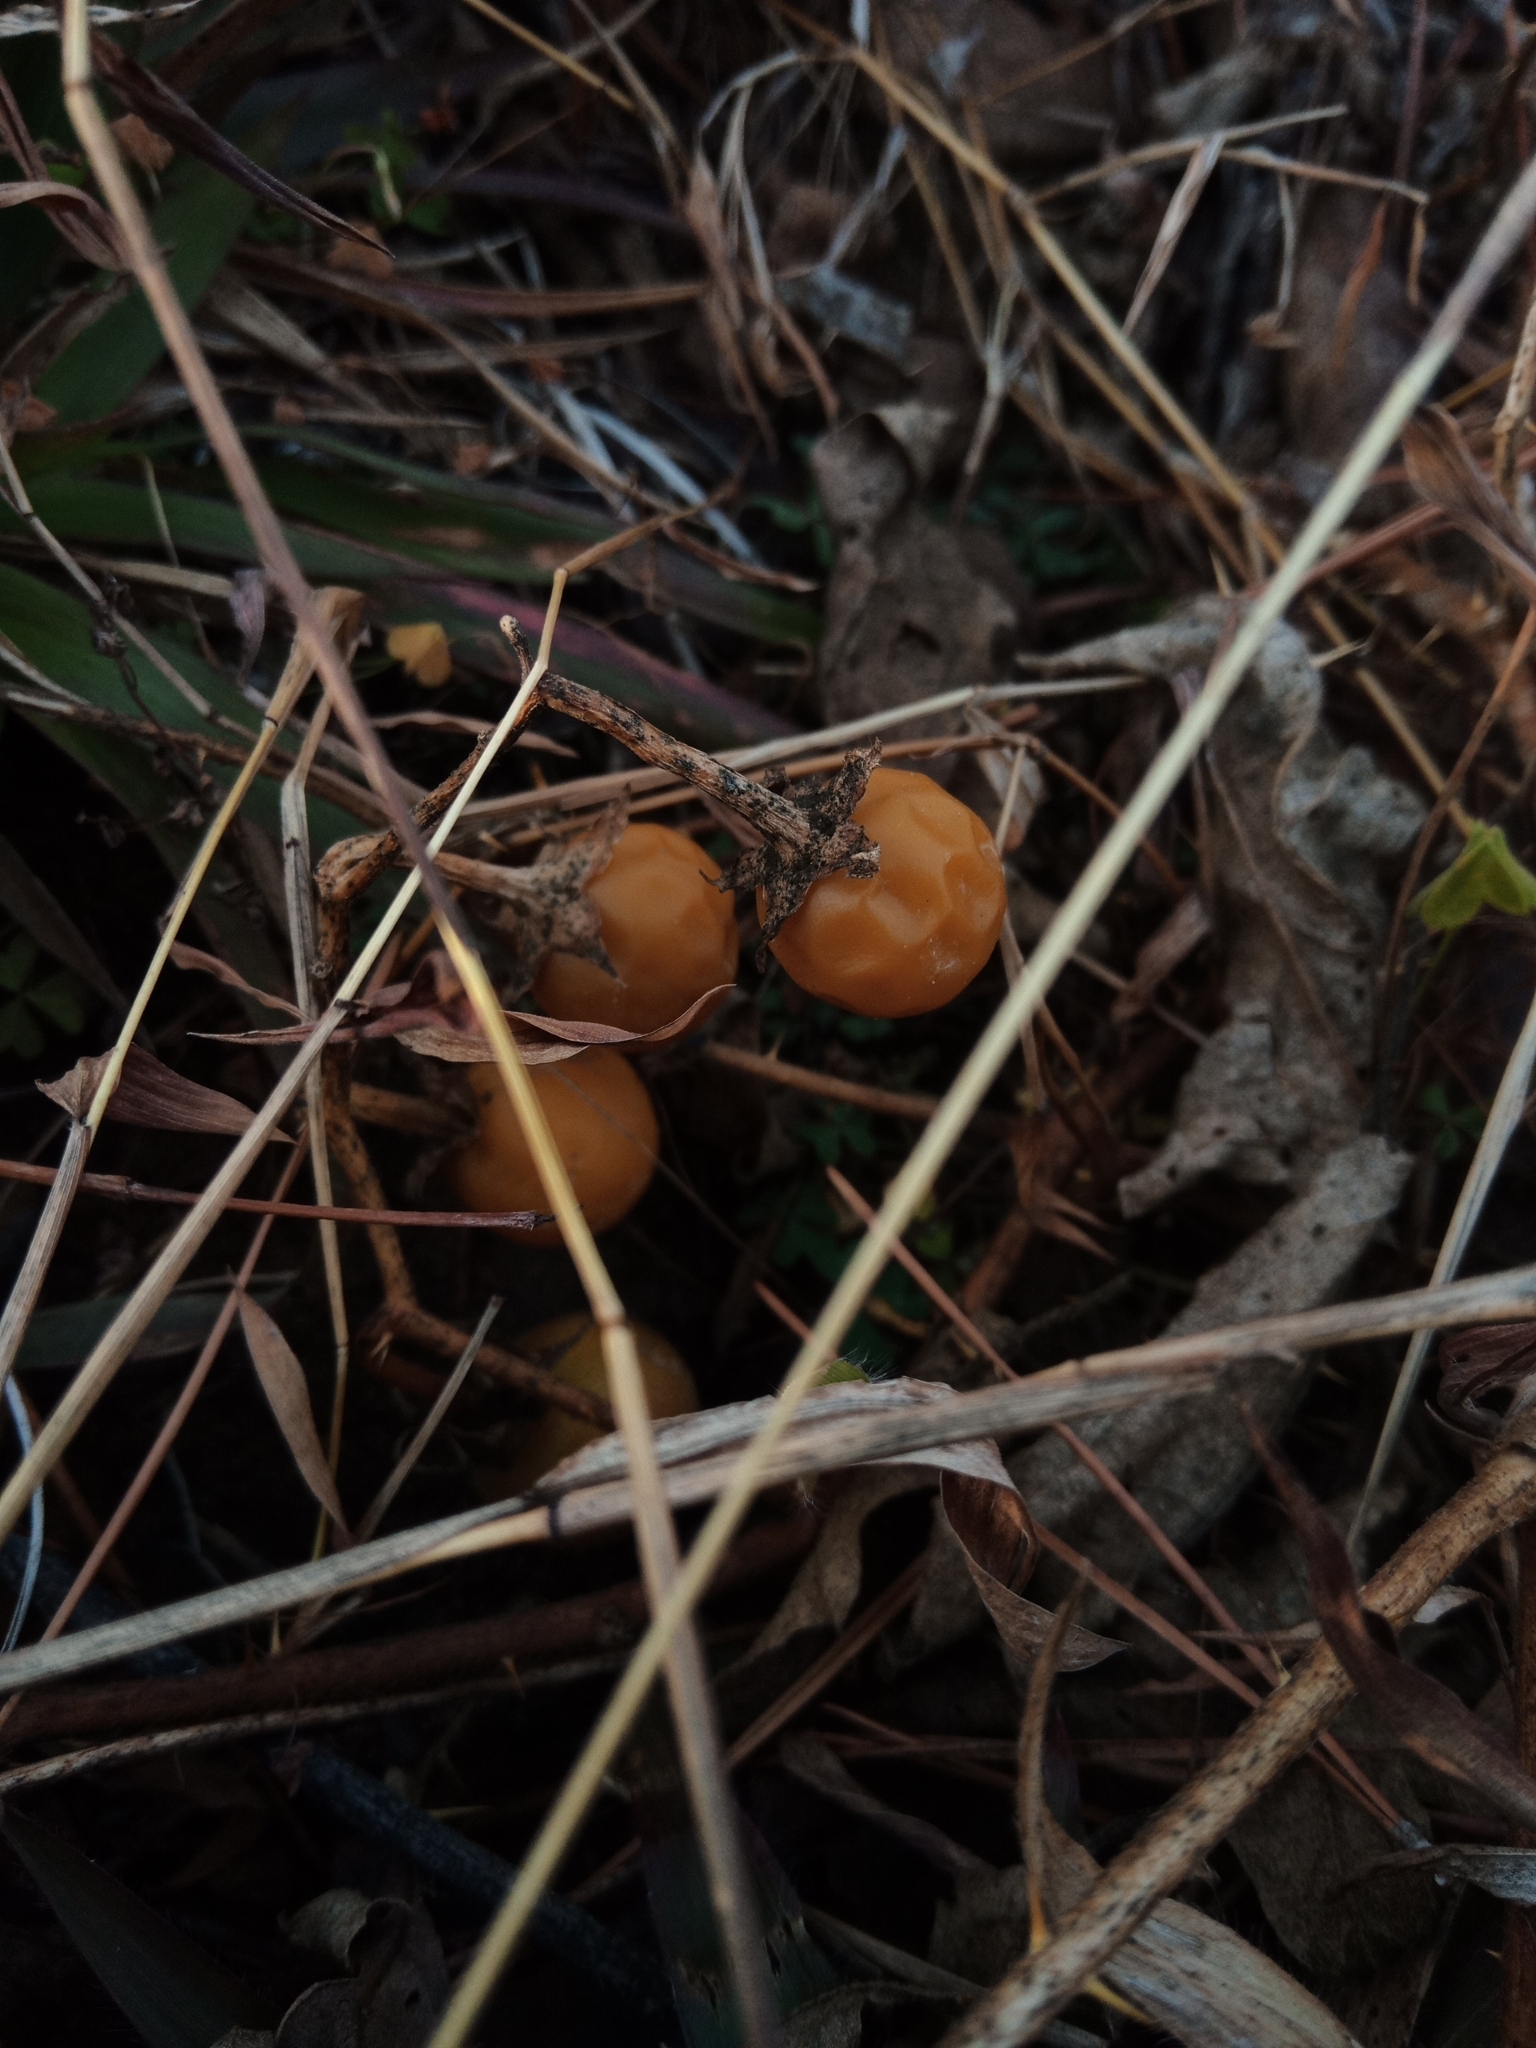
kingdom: Plantae
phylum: Tracheophyta
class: Magnoliopsida
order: Solanales
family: Solanaceae
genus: Solanum
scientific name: Solanum carolinense
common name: Horse-nettle
